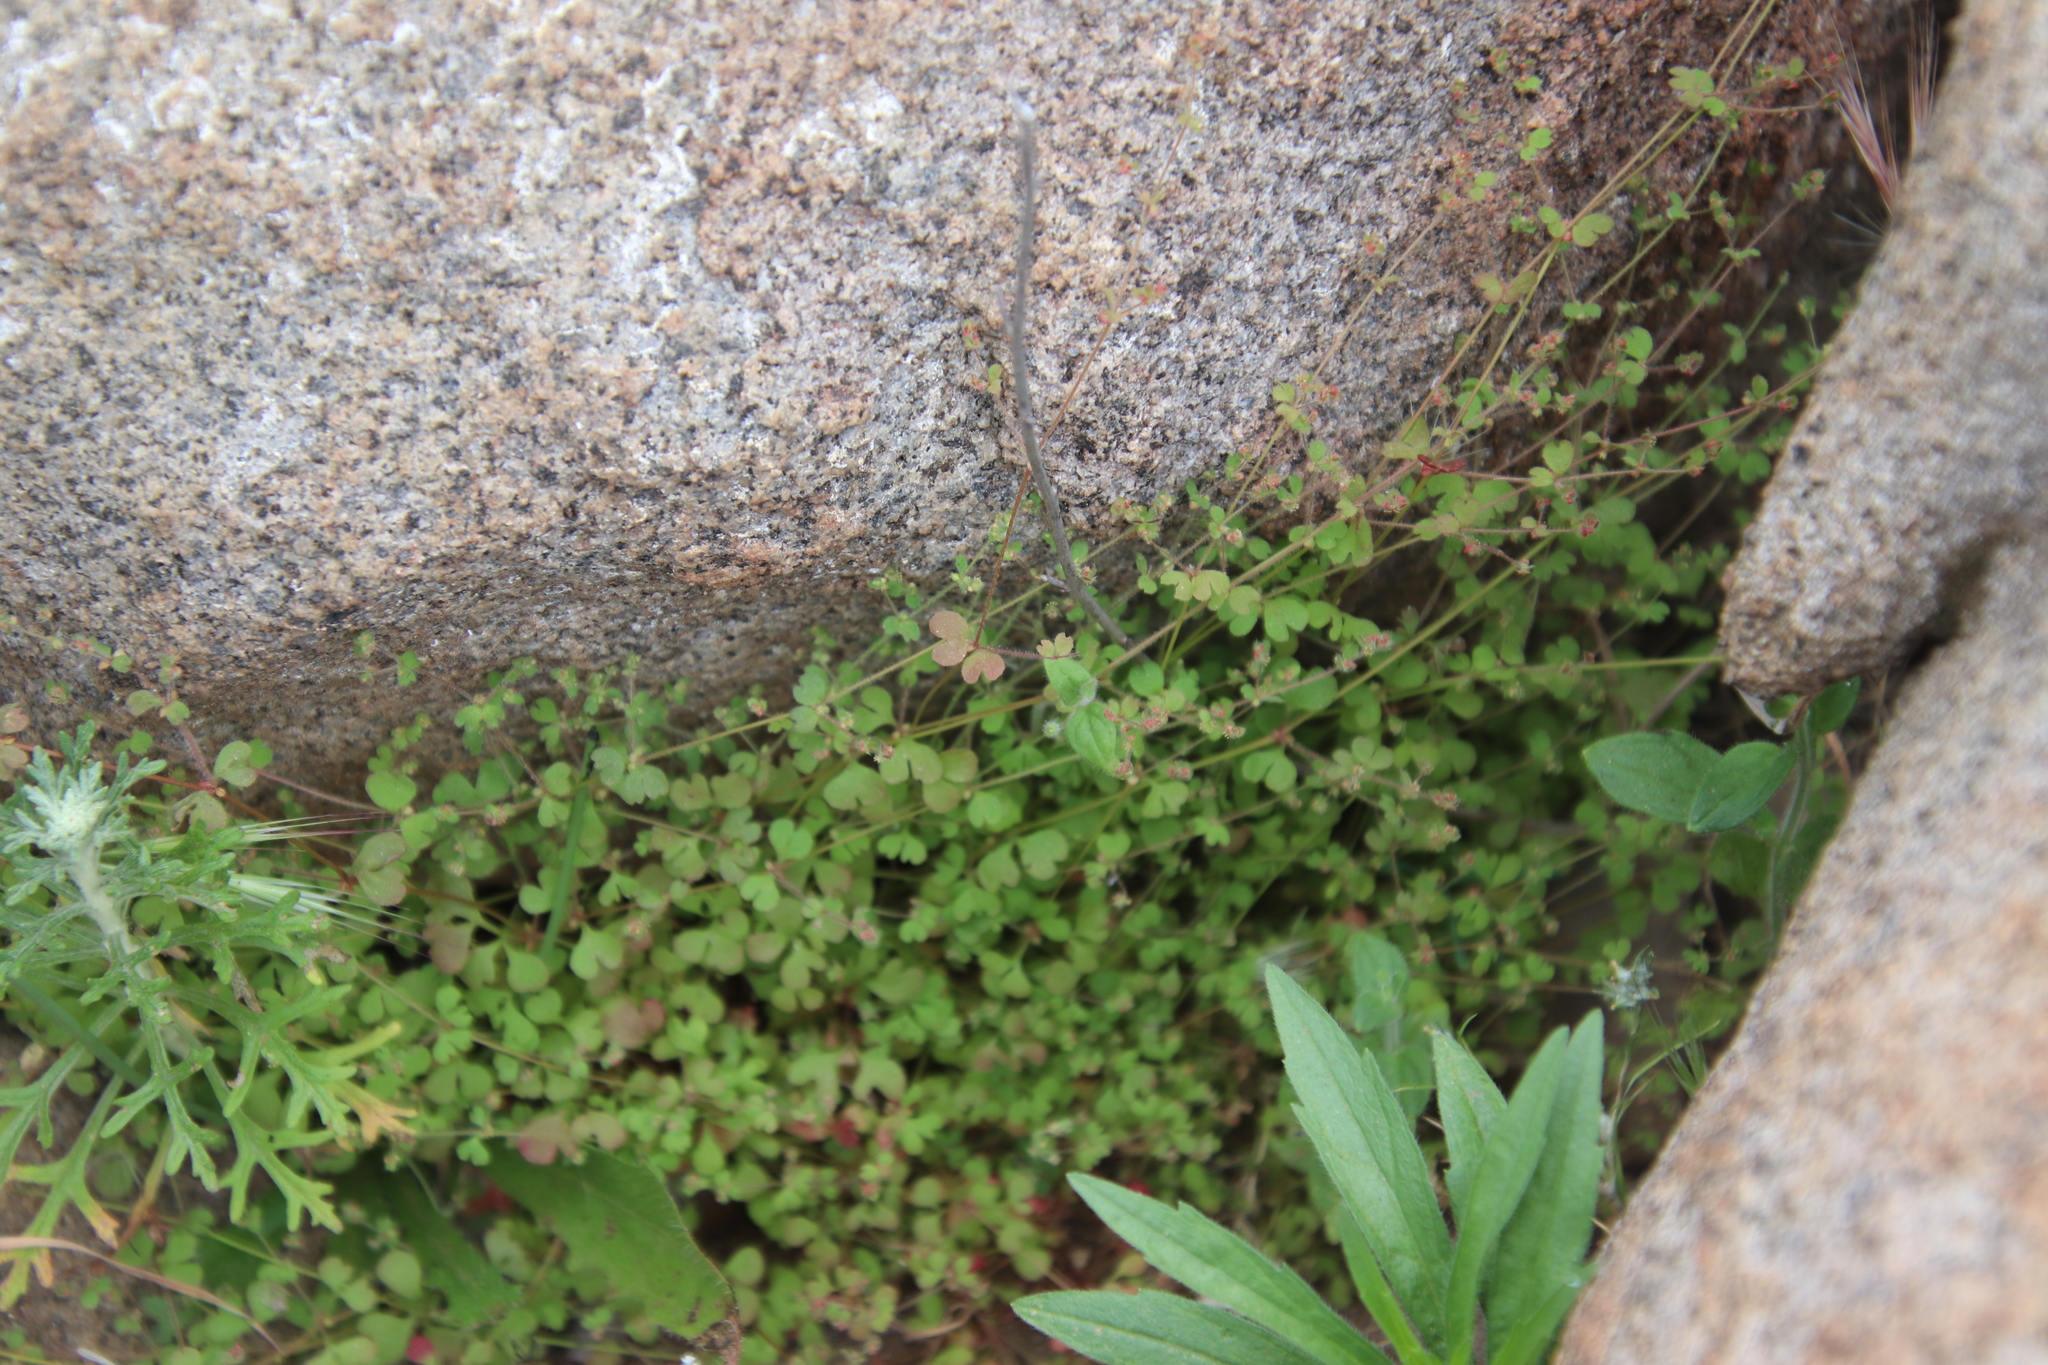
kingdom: Plantae
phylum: Tracheophyta
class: Magnoliopsida
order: Caryophyllales
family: Polygonaceae
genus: Pterostegia
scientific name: Pterostegia drymarioides
